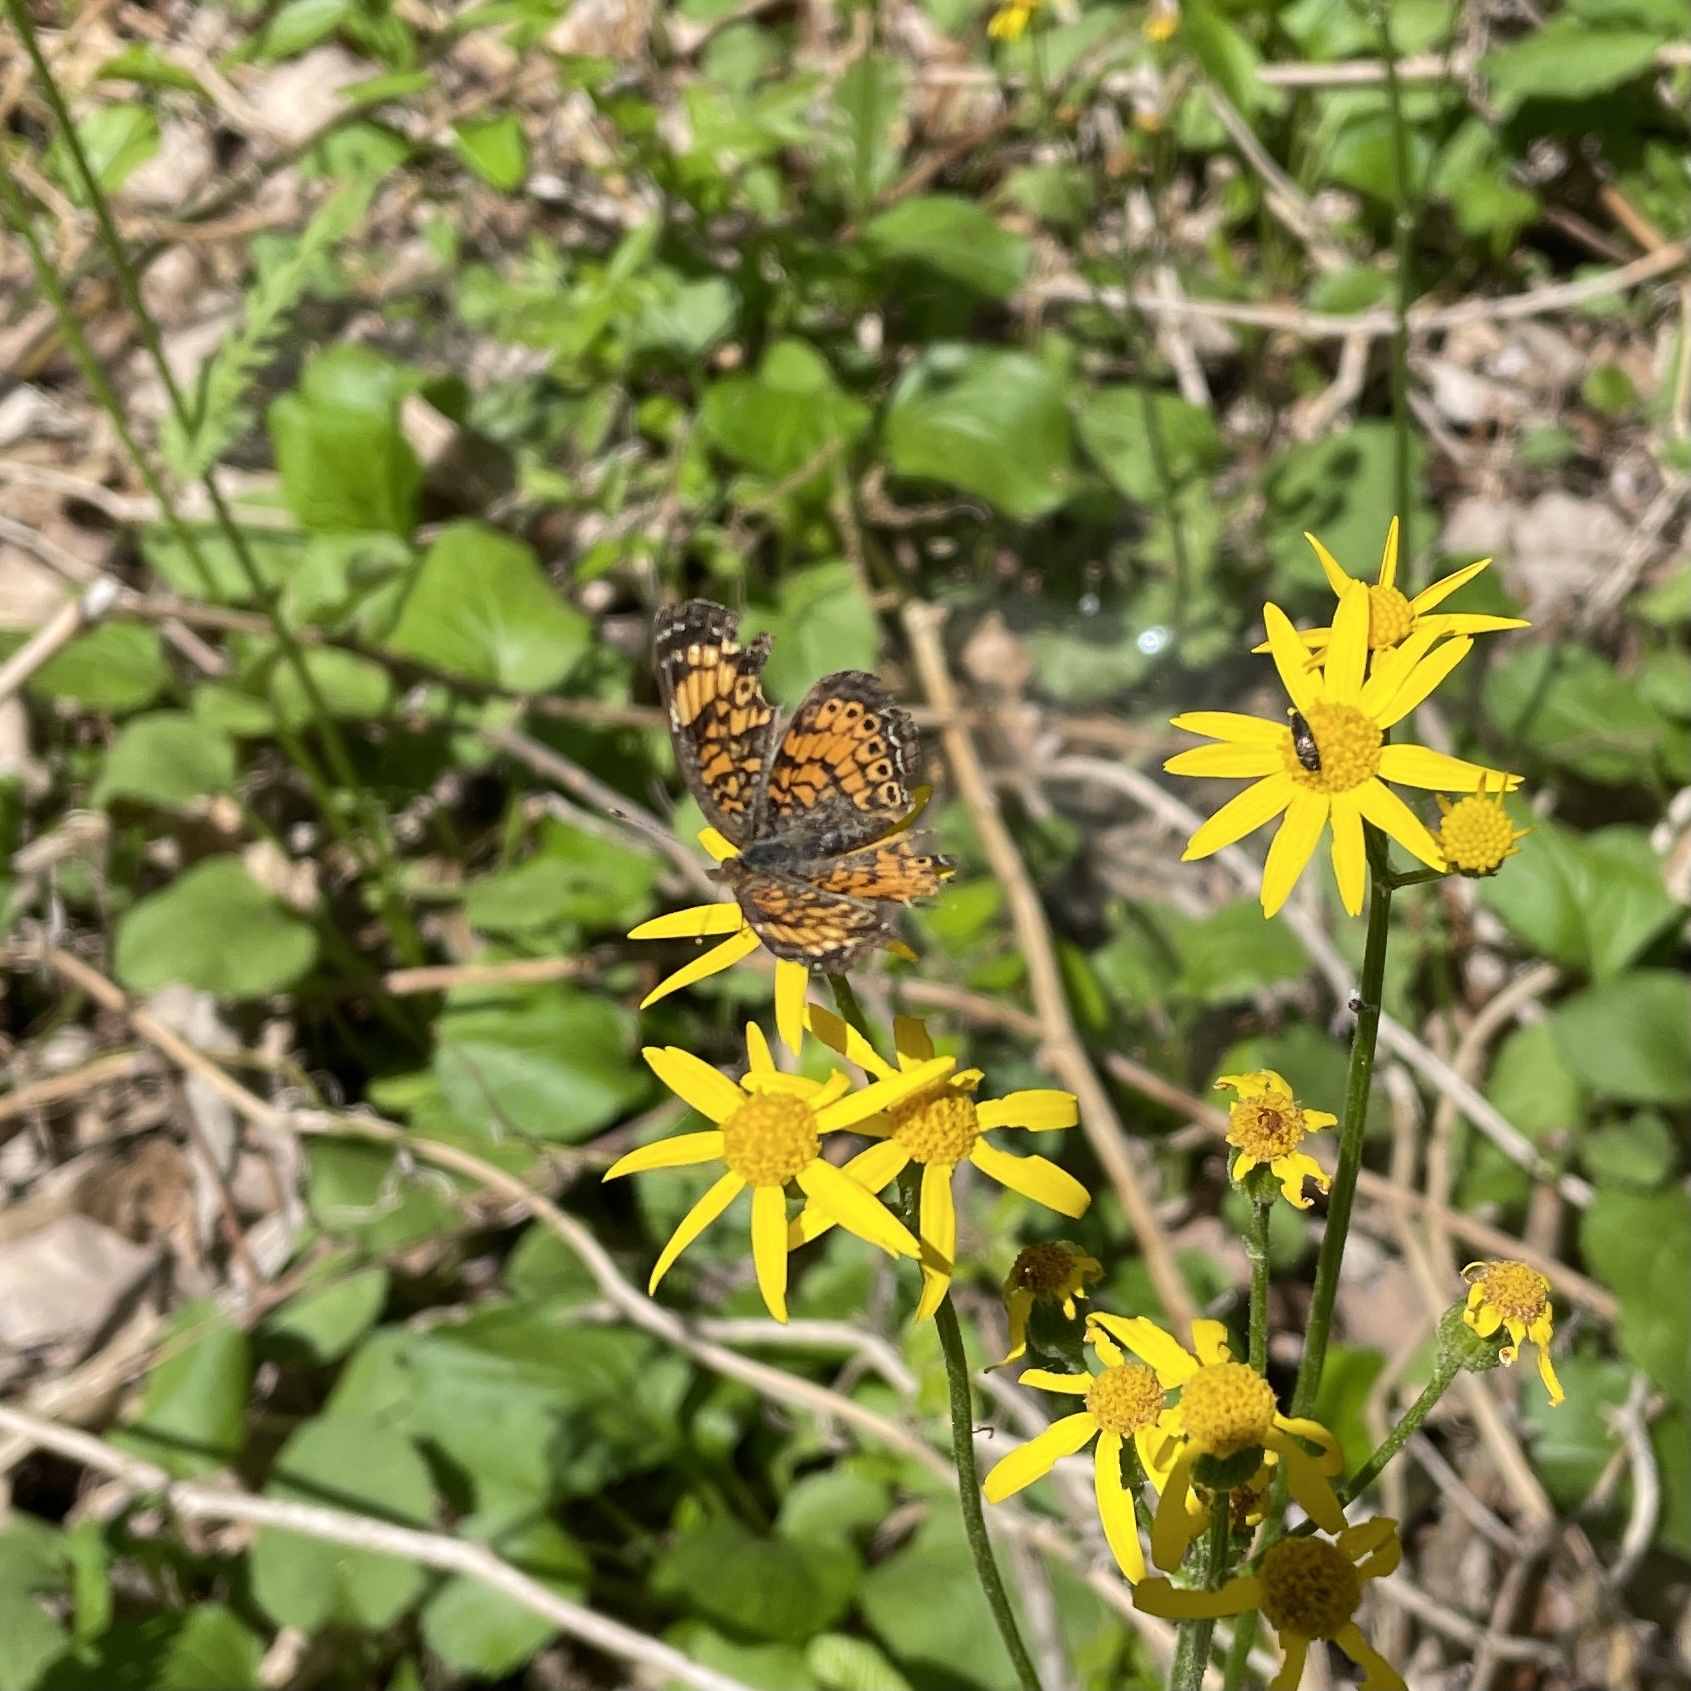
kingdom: Animalia
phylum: Arthropoda
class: Insecta
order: Lepidoptera
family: Nymphalidae
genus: Phyciodes
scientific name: Phyciodes tharos
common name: Pearl crescent
